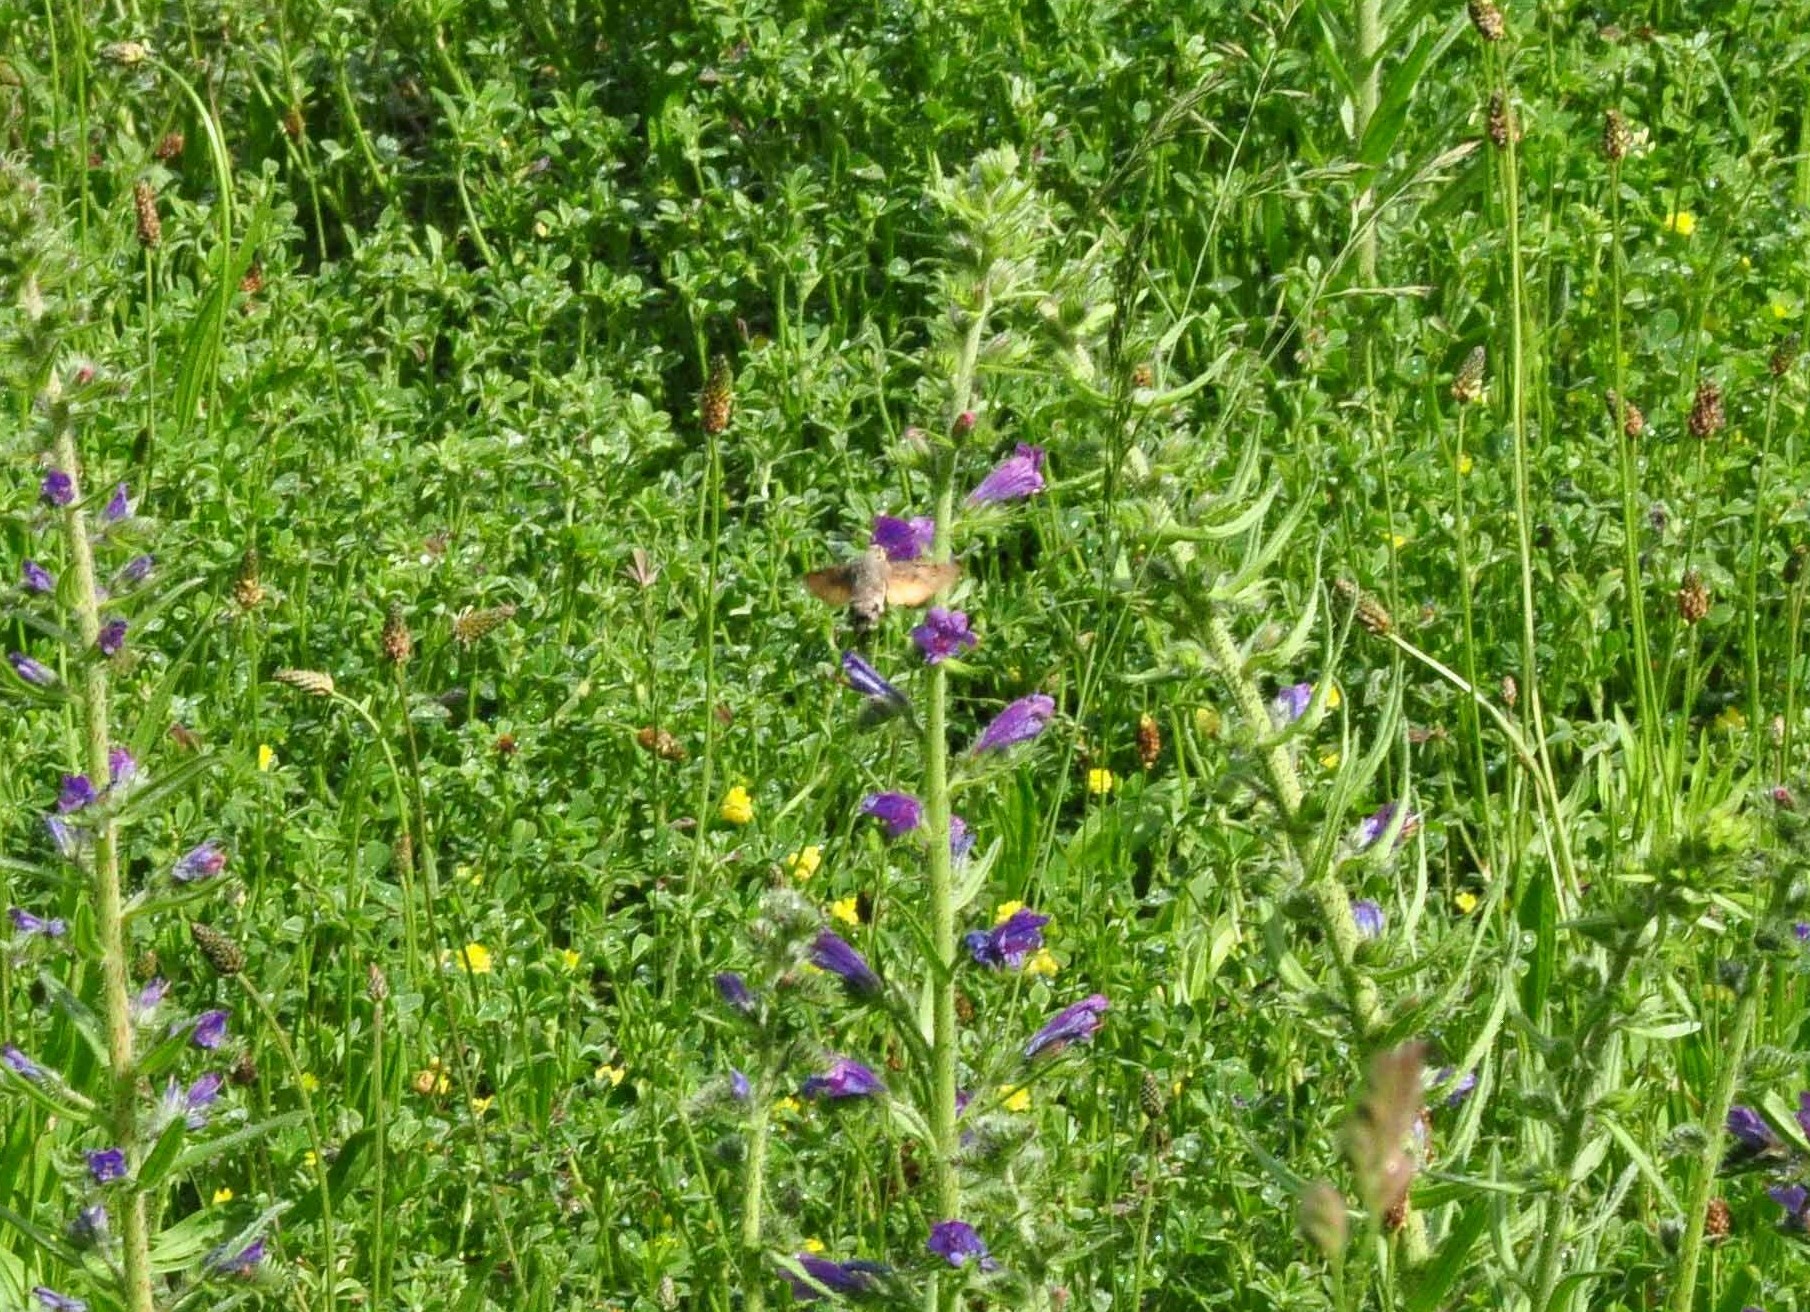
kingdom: Animalia
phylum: Arthropoda
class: Insecta
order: Lepidoptera
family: Sphingidae
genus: Macroglossum
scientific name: Macroglossum stellatarum
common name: Humming-bird hawk-moth
